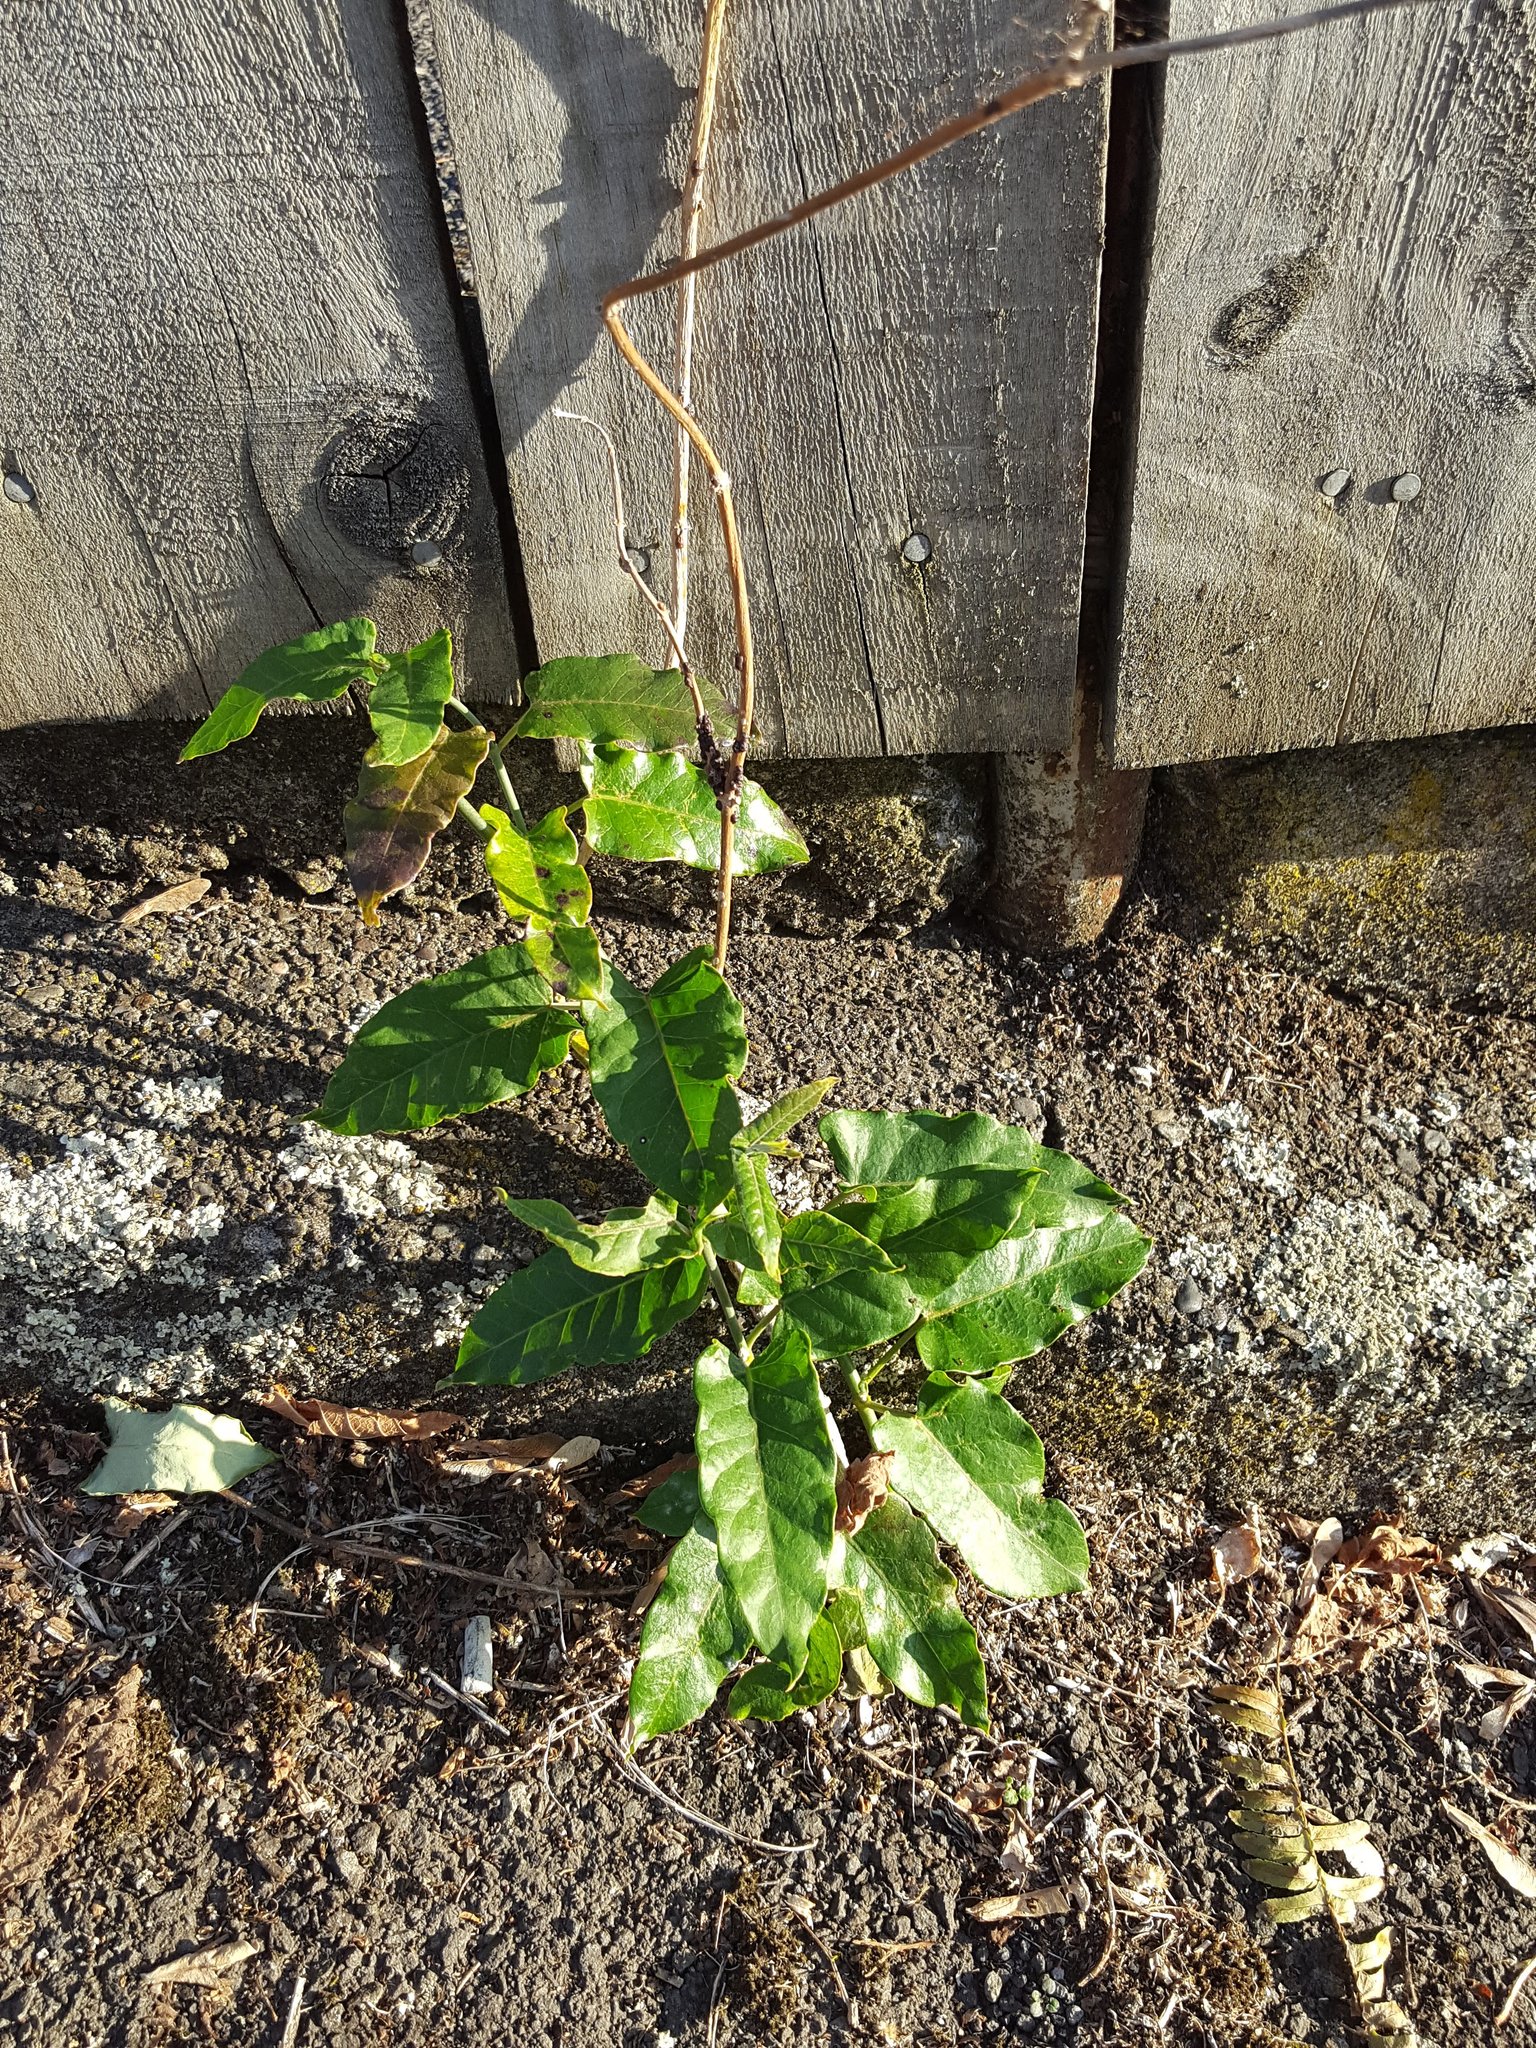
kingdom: Plantae
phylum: Tracheophyta
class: Magnoliopsida
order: Gentianales
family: Apocynaceae
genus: Araujia
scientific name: Araujia sericifera
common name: White bladderflower
